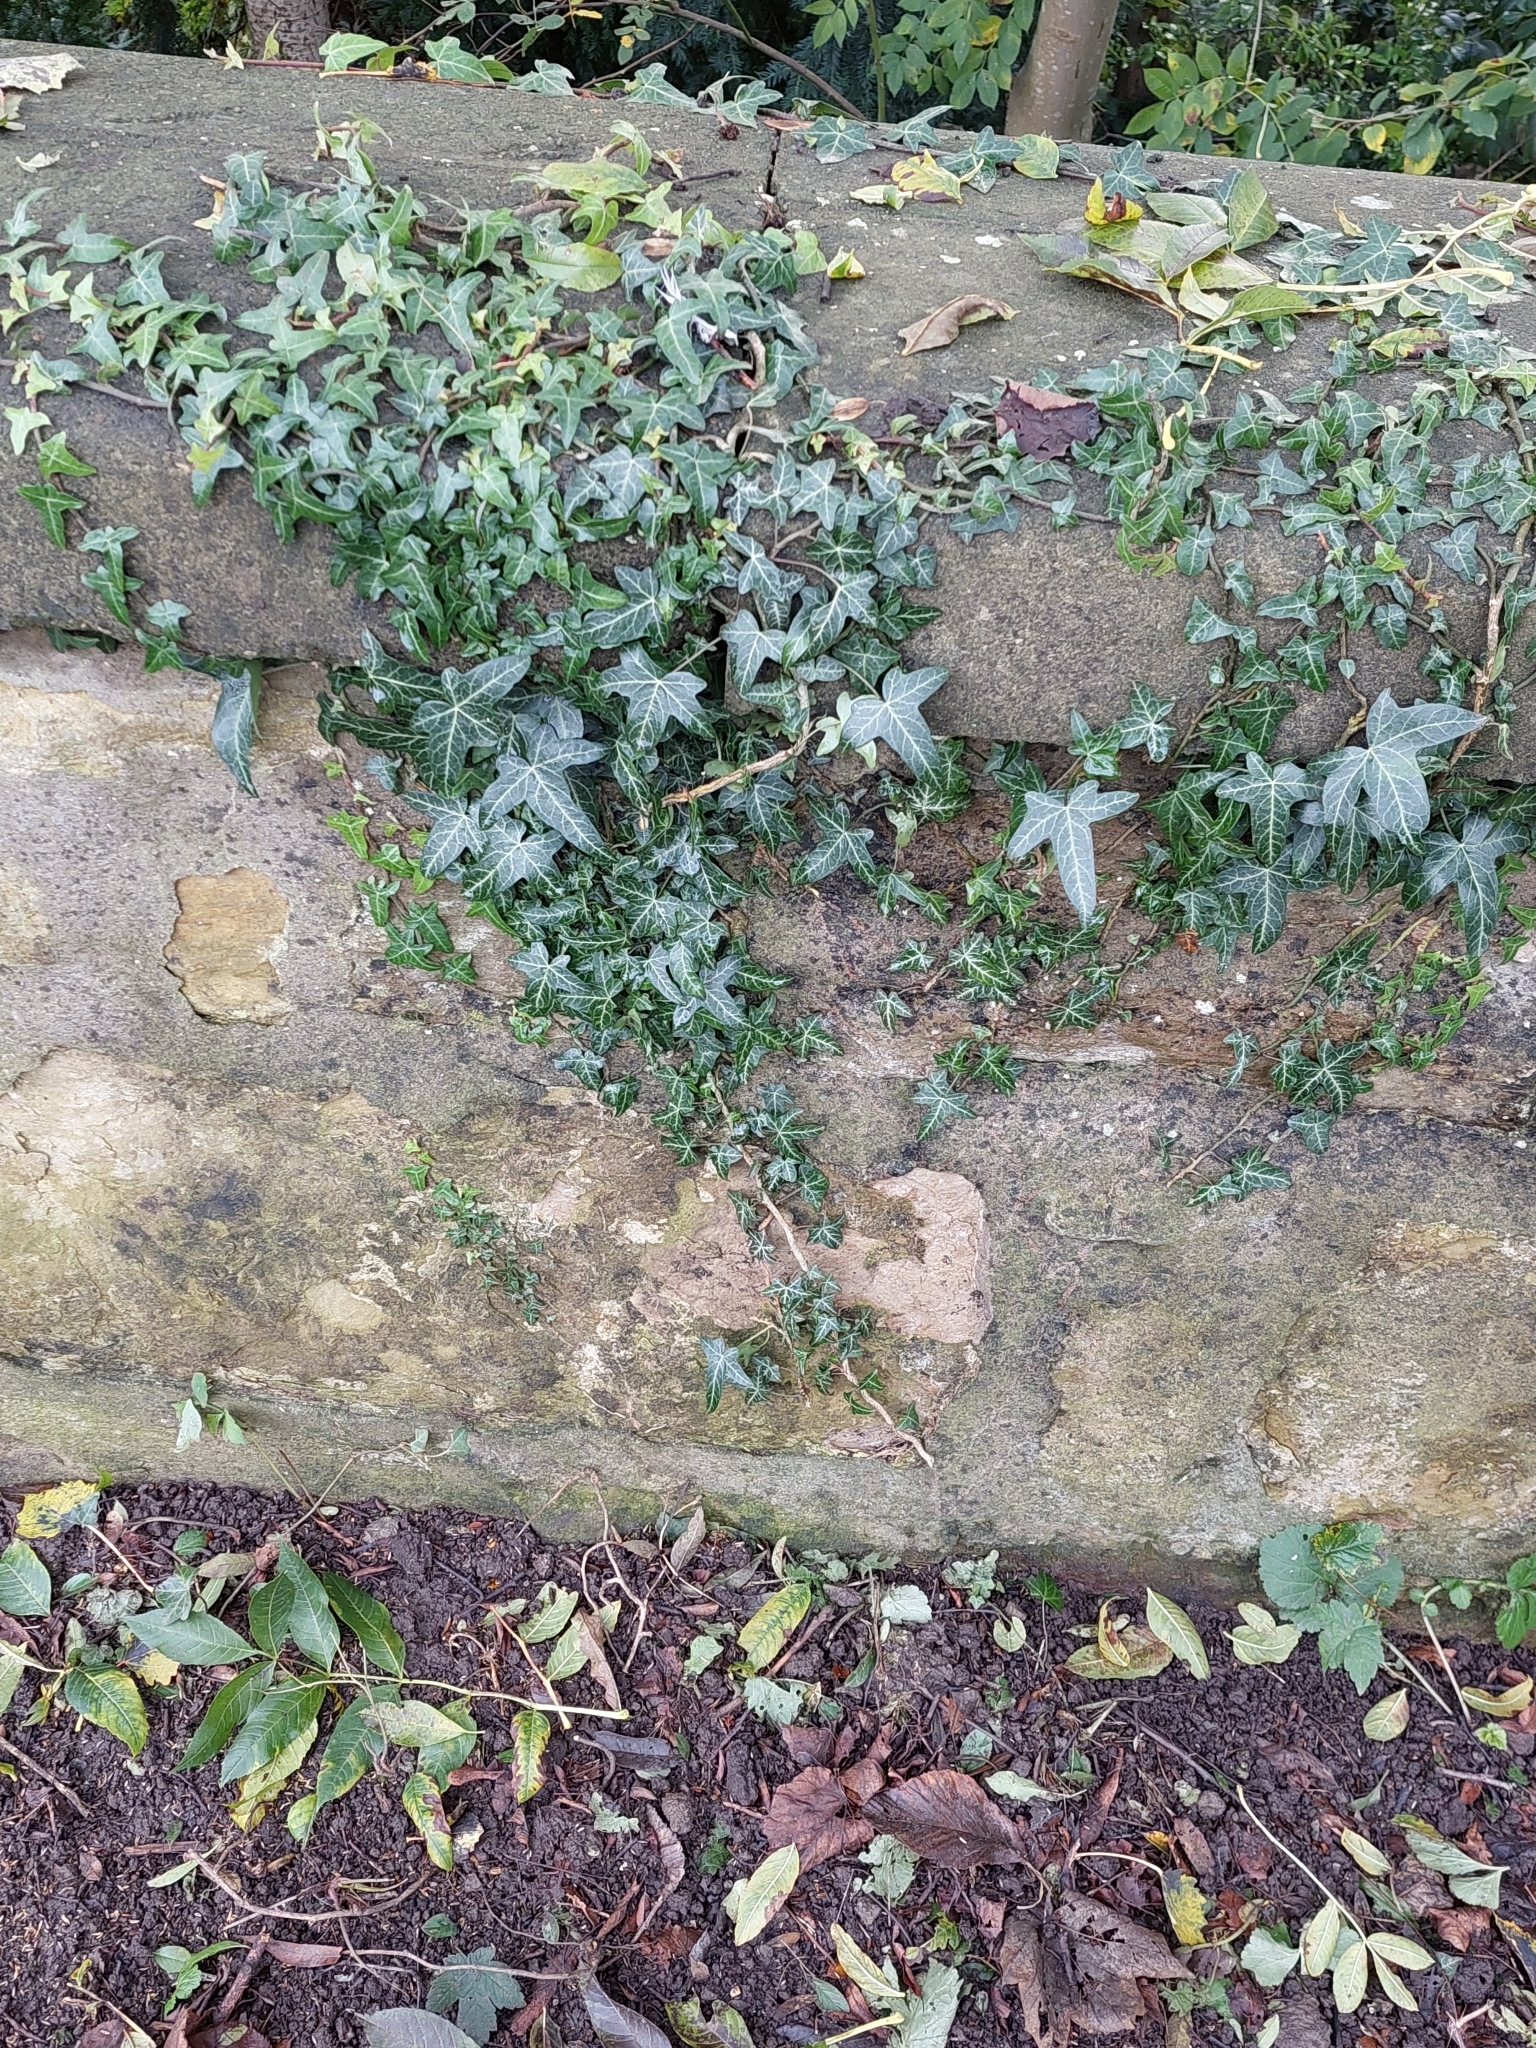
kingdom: Plantae
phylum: Tracheophyta
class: Magnoliopsida
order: Apiales
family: Araliaceae
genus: Hedera
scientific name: Hedera helix
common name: Ivy
